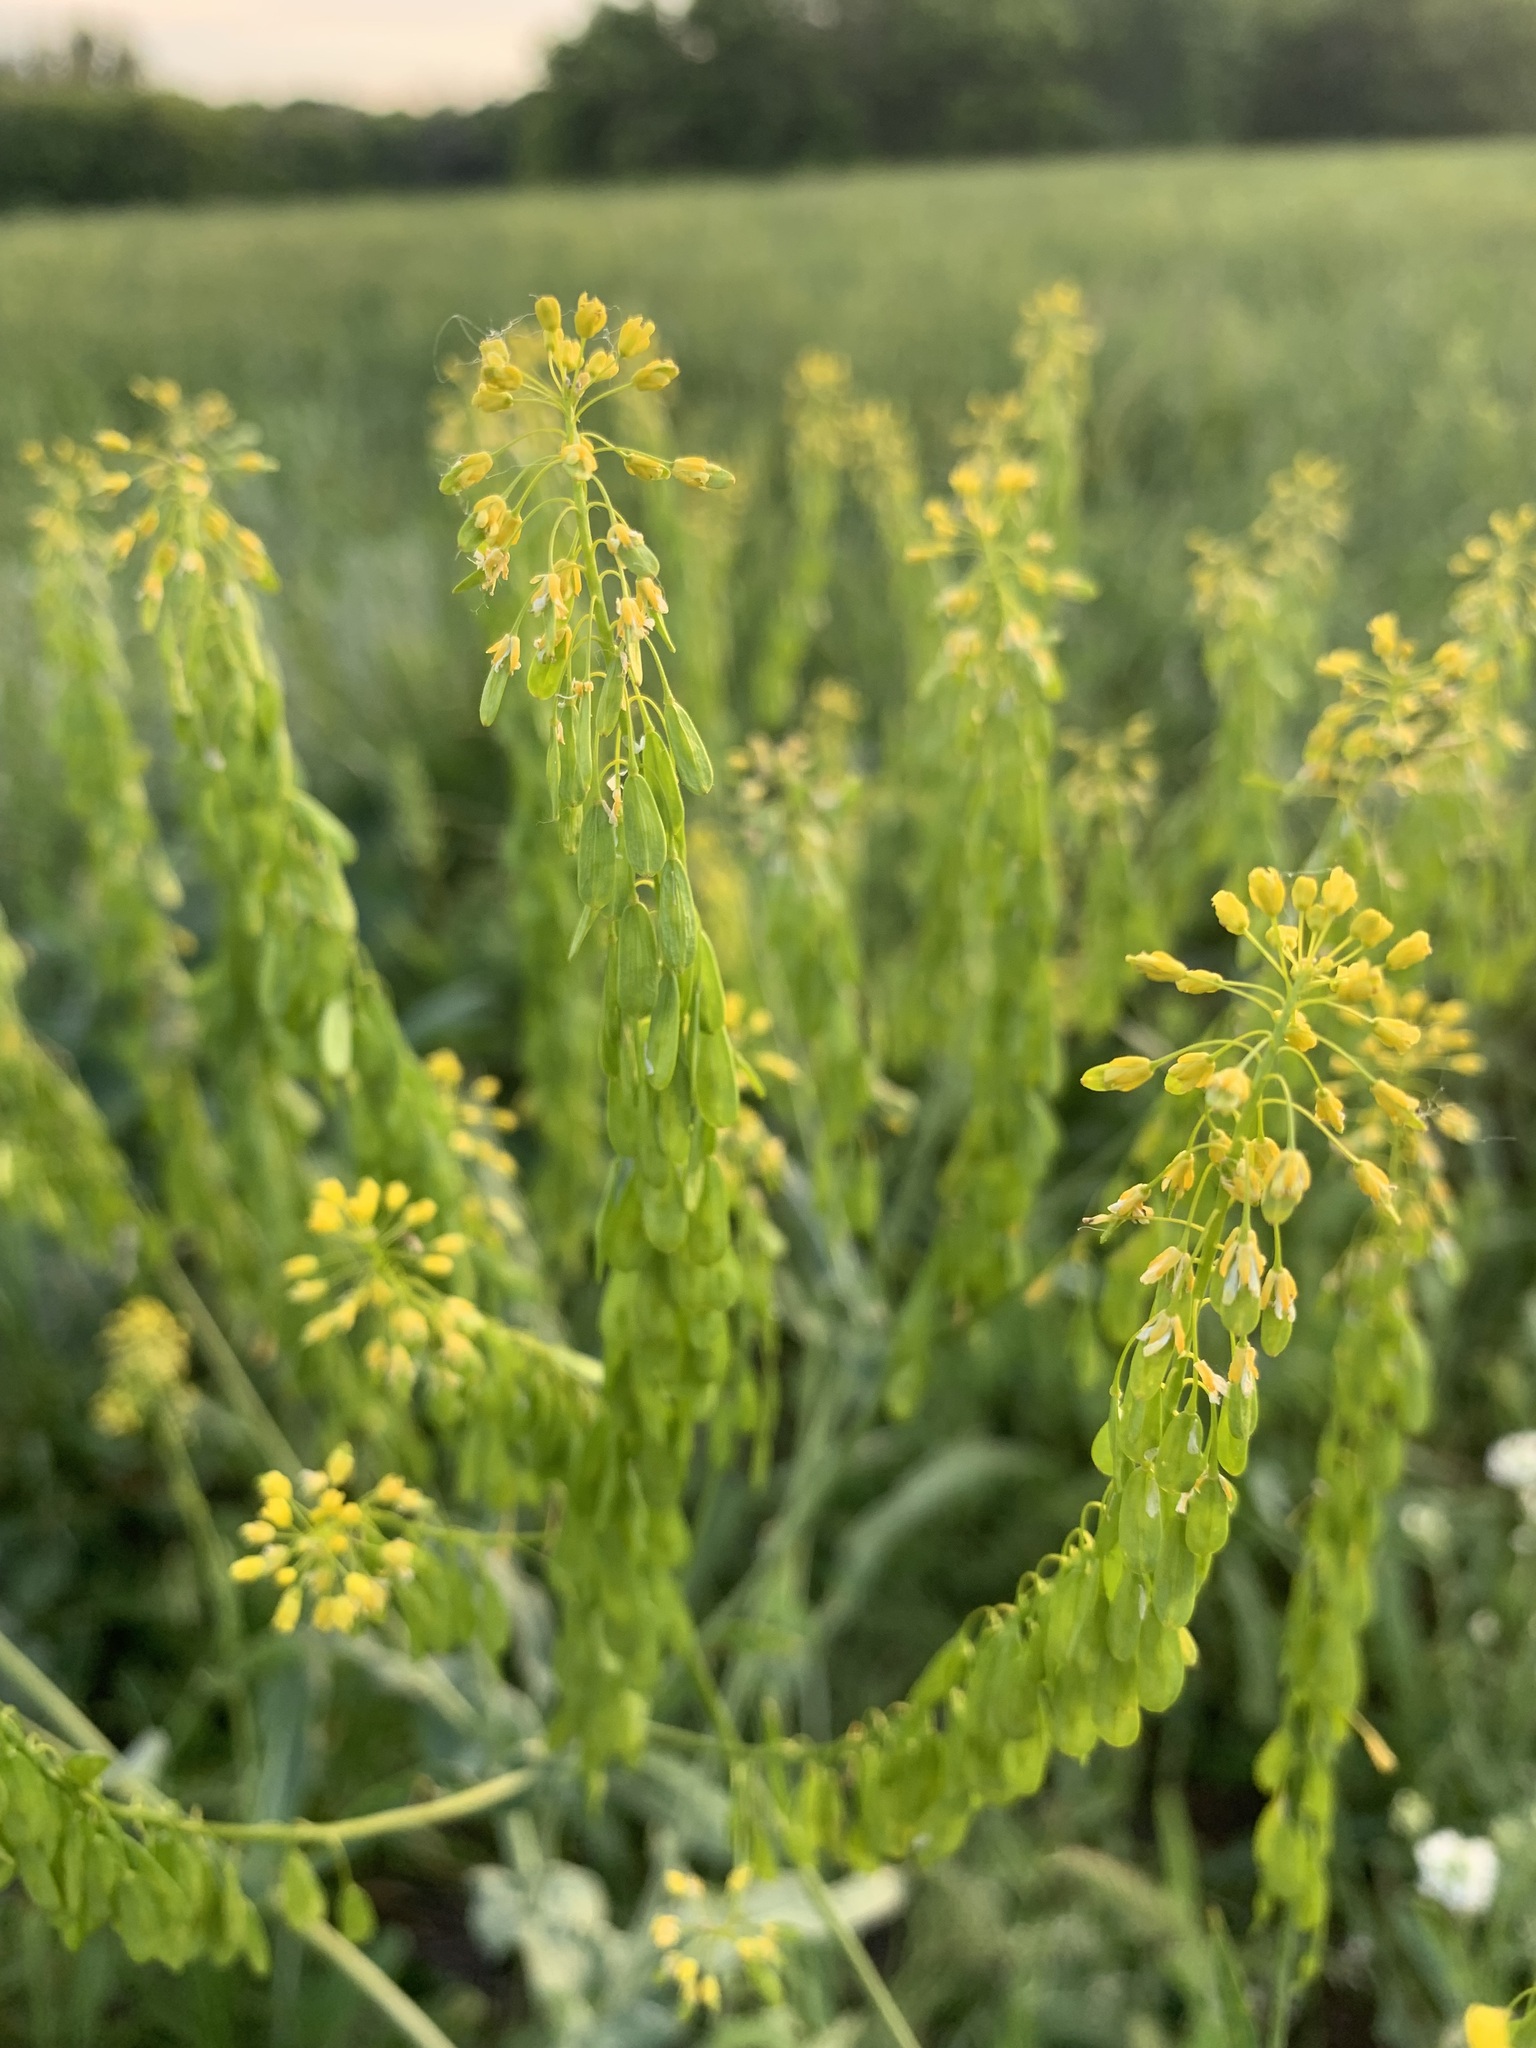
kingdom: Plantae
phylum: Tracheophyta
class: Magnoliopsida
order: Brassicales
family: Brassicaceae
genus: Isatis
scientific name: Isatis costata
